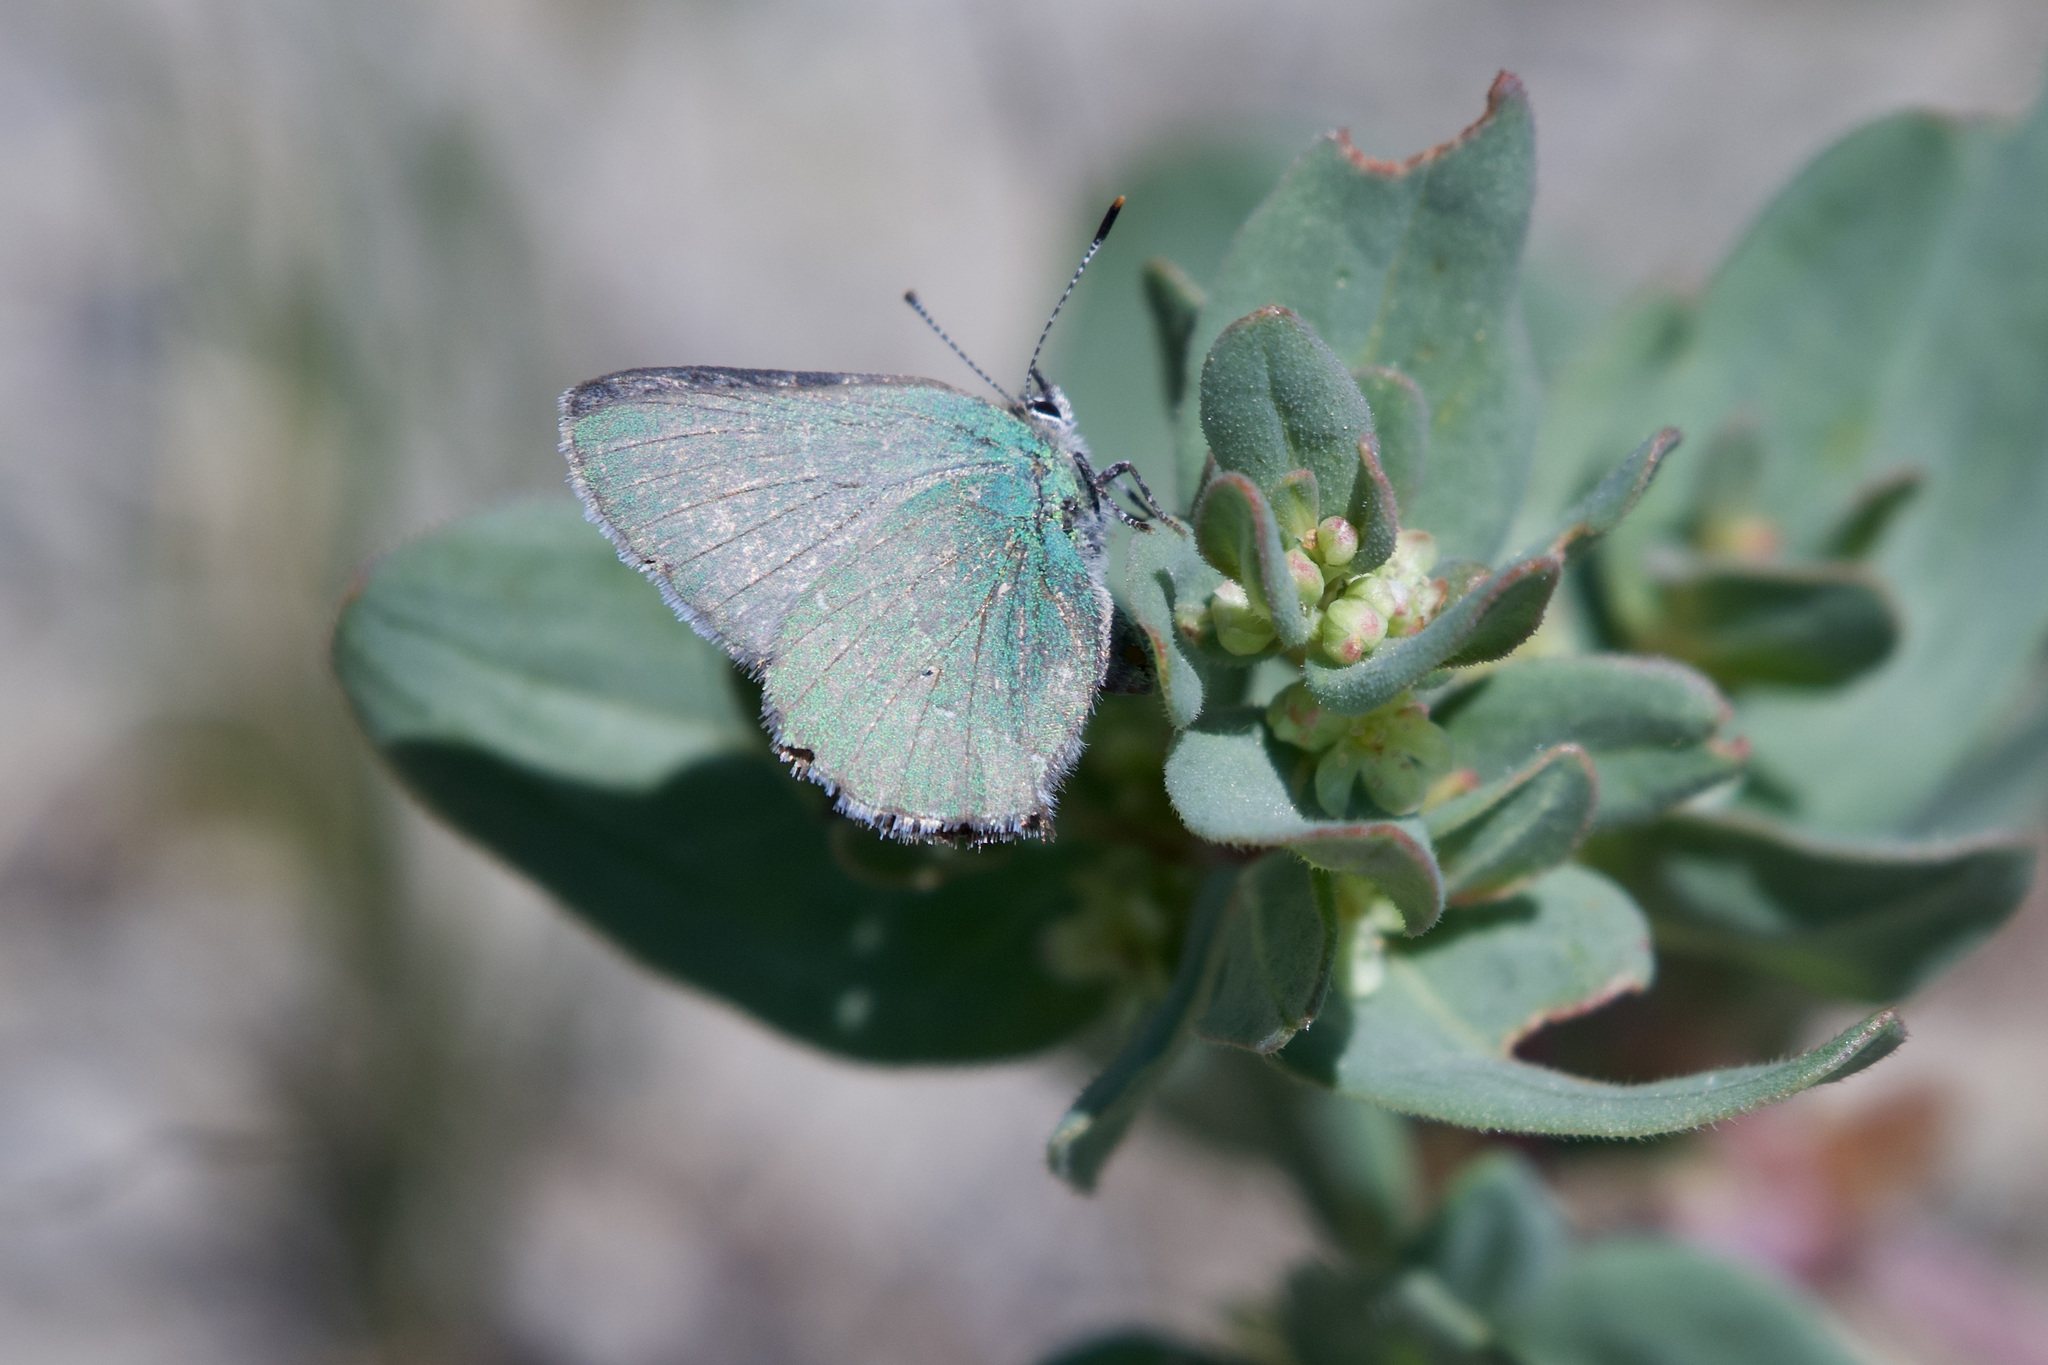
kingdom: Animalia
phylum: Arthropoda
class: Insecta
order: Lepidoptera
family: Lycaenidae
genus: Thecla
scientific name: Thecla sheridanii
